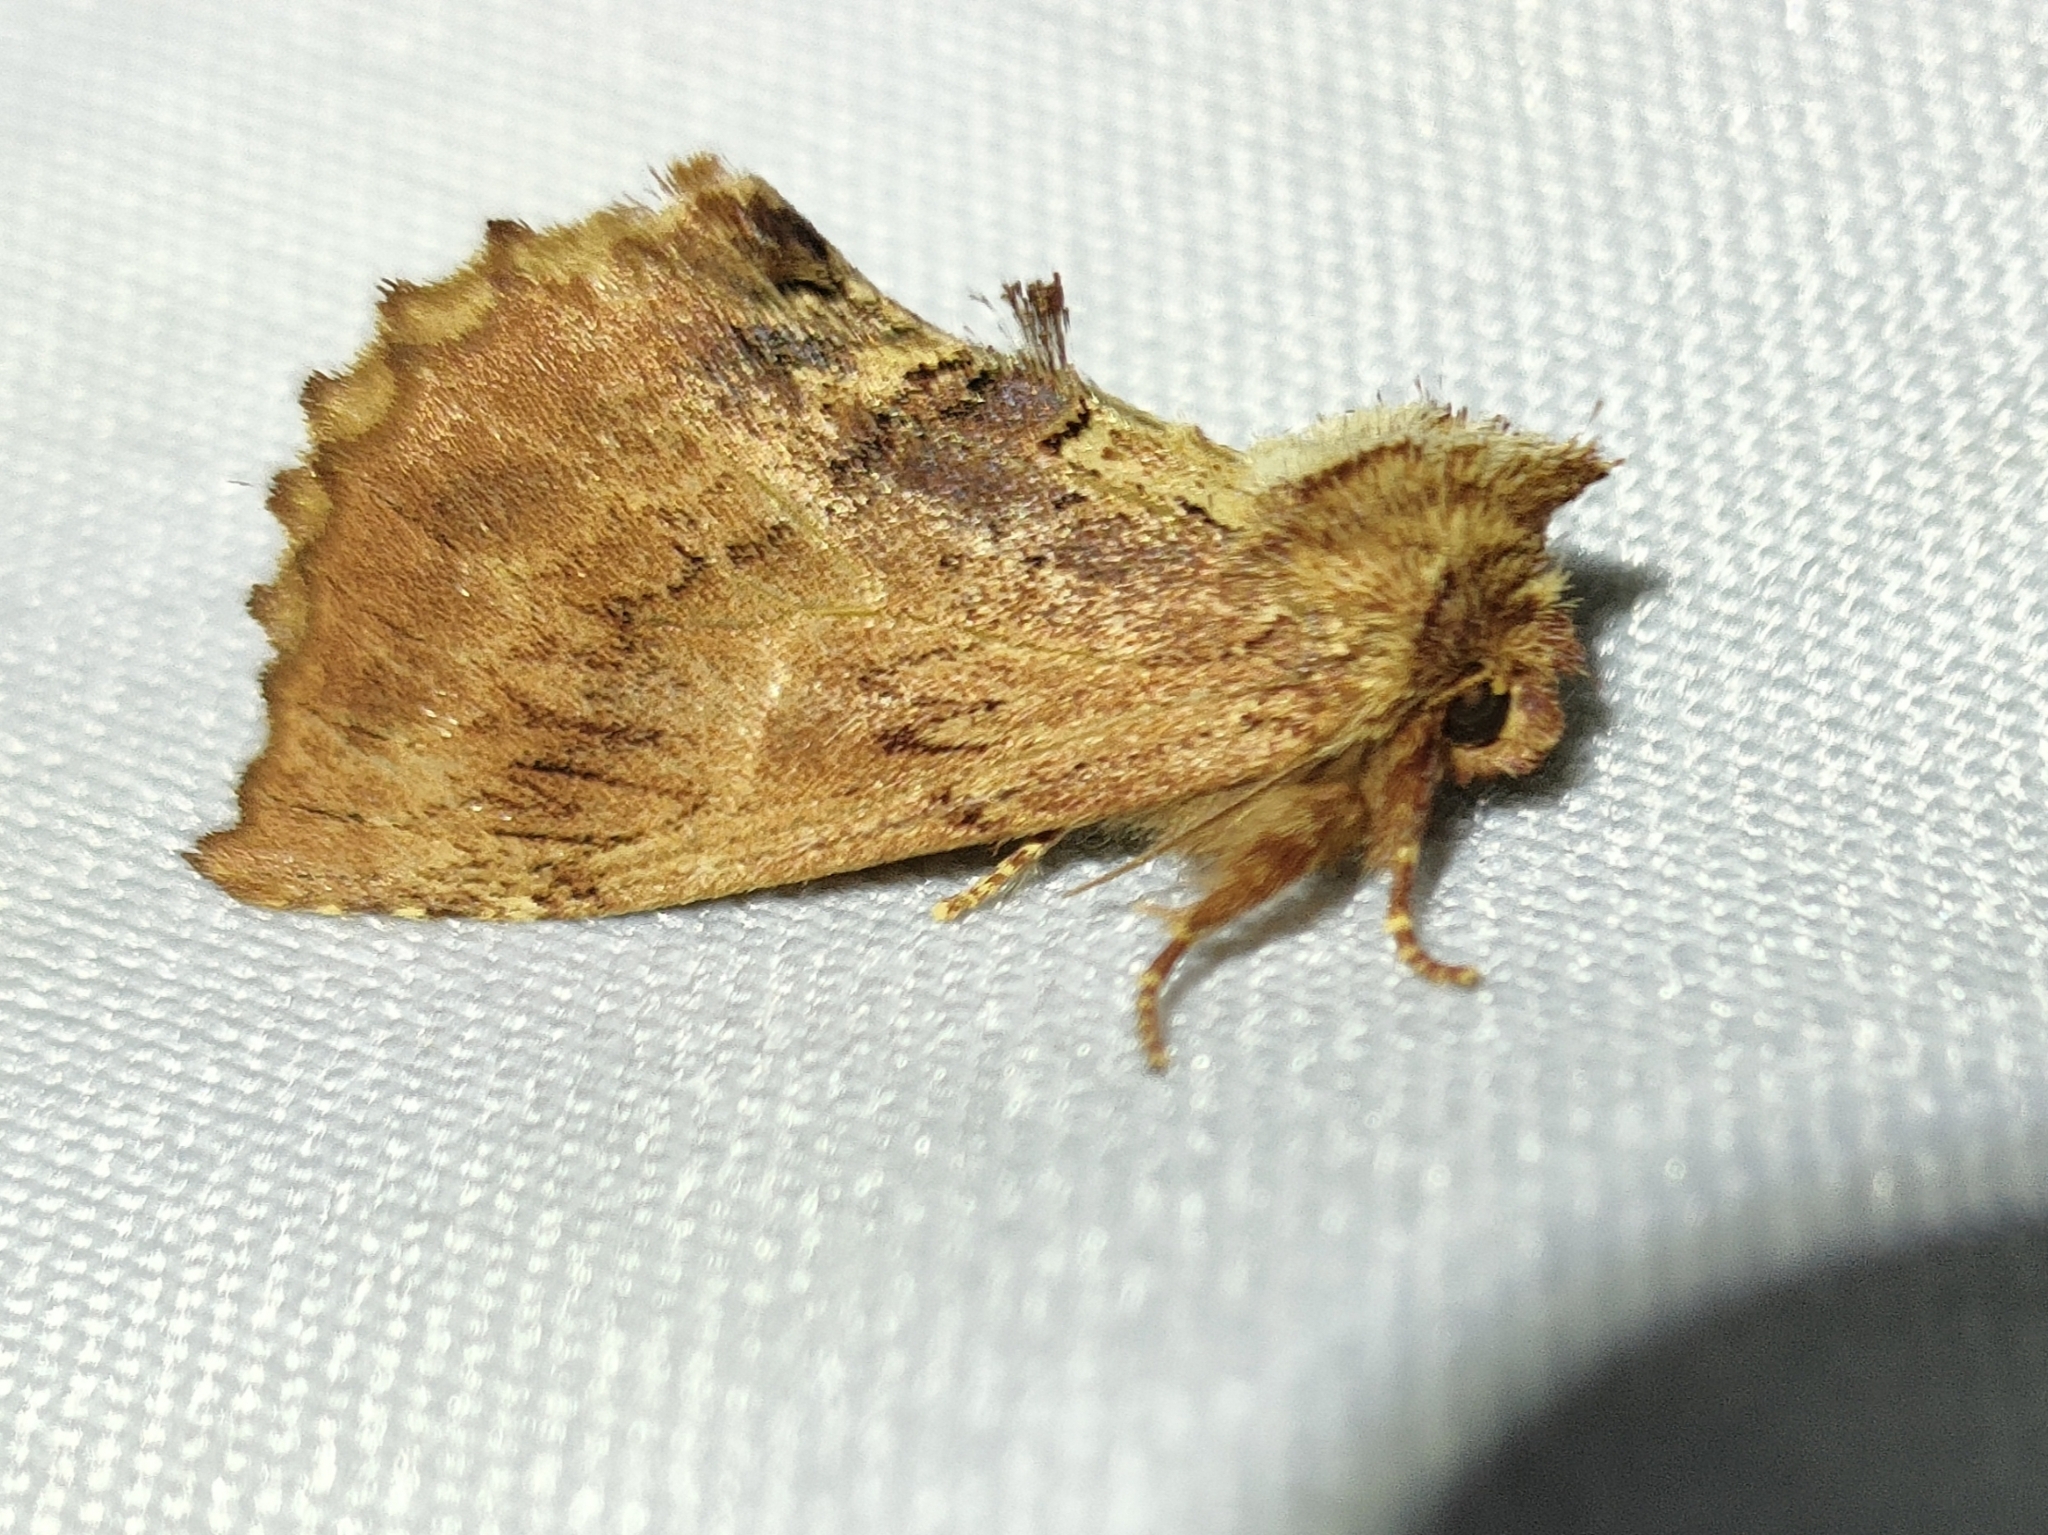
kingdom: Animalia
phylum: Arthropoda
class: Insecta
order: Lepidoptera
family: Notodontidae
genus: Ptilodon
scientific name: Ptilodon capucina
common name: Coxcomb prominent
